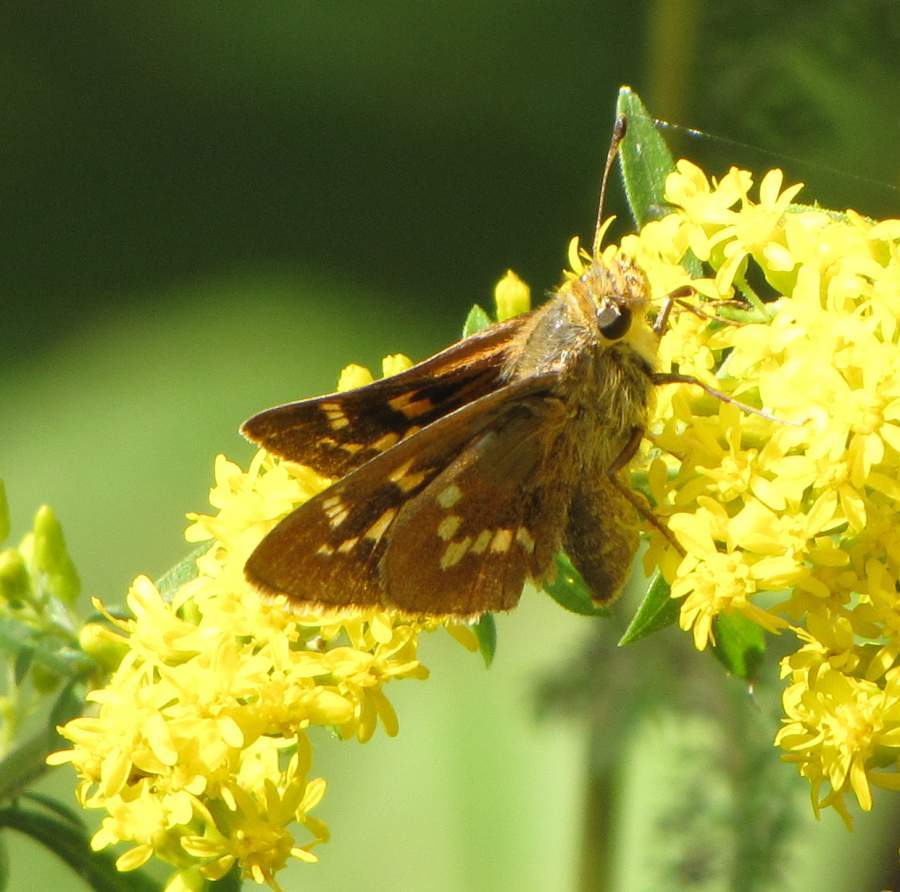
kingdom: Animalia
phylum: Arthropoda
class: Insecta
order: Lepidoptera
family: Hesperiidae
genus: Hesperia
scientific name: Hesperia leonardus
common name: Leonard's skipper
